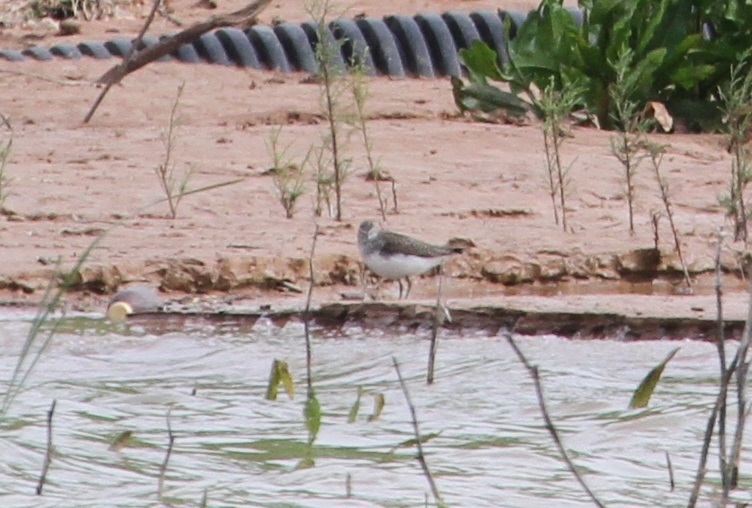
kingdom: Animalia
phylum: Chordata
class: Aves
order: Charadriiformes
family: Scolopacidae
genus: Tringa
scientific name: Tringa ochropus
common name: Green sandpiper
